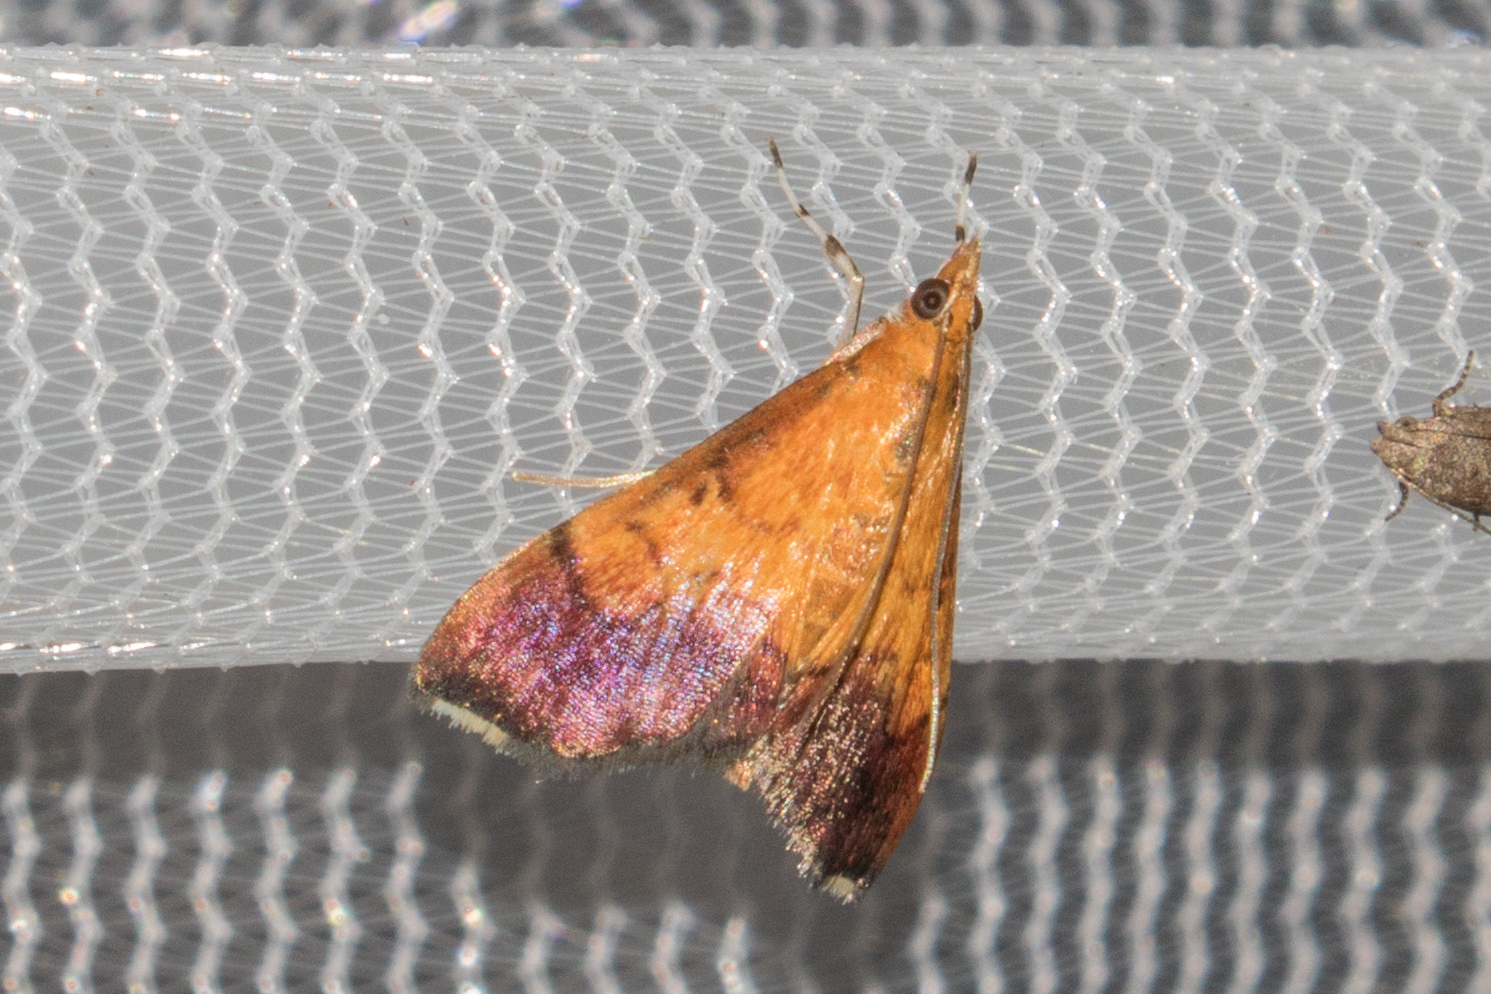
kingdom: Animalia
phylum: Arthropoda
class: Insecta
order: Lepidoptera
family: Crambidae
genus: Pyrausta
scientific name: Pyrausta bicoloralis
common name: Bicolored pyrausta moth
